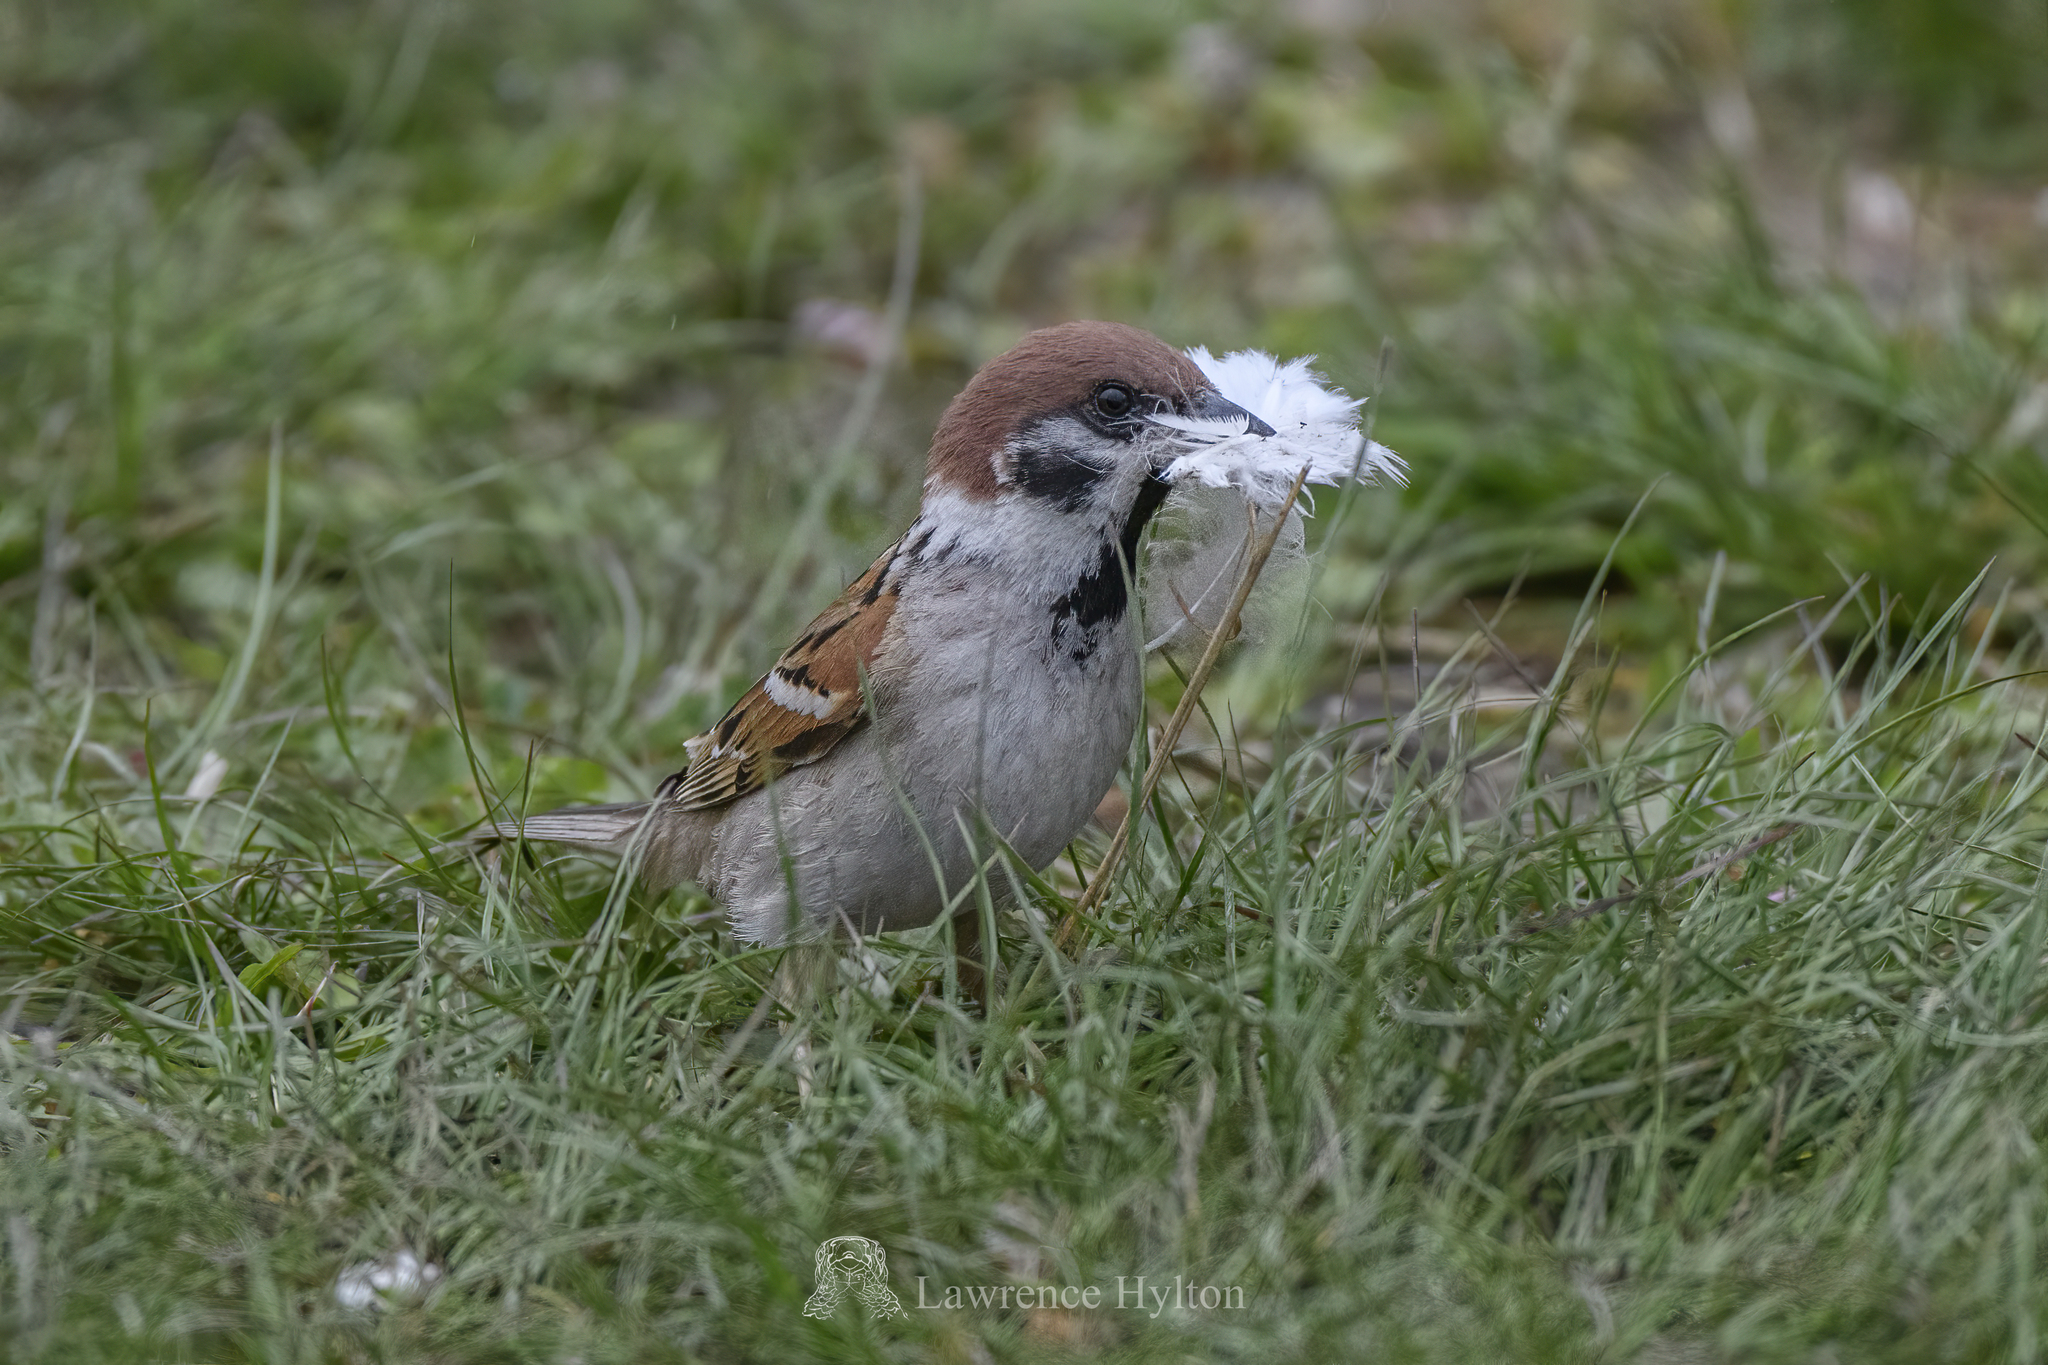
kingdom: Animalia
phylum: Chordata
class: Aves
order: Passeriformes
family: Passeridae
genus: Passer
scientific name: Passer montanus
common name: Eurasian tree sparrow
